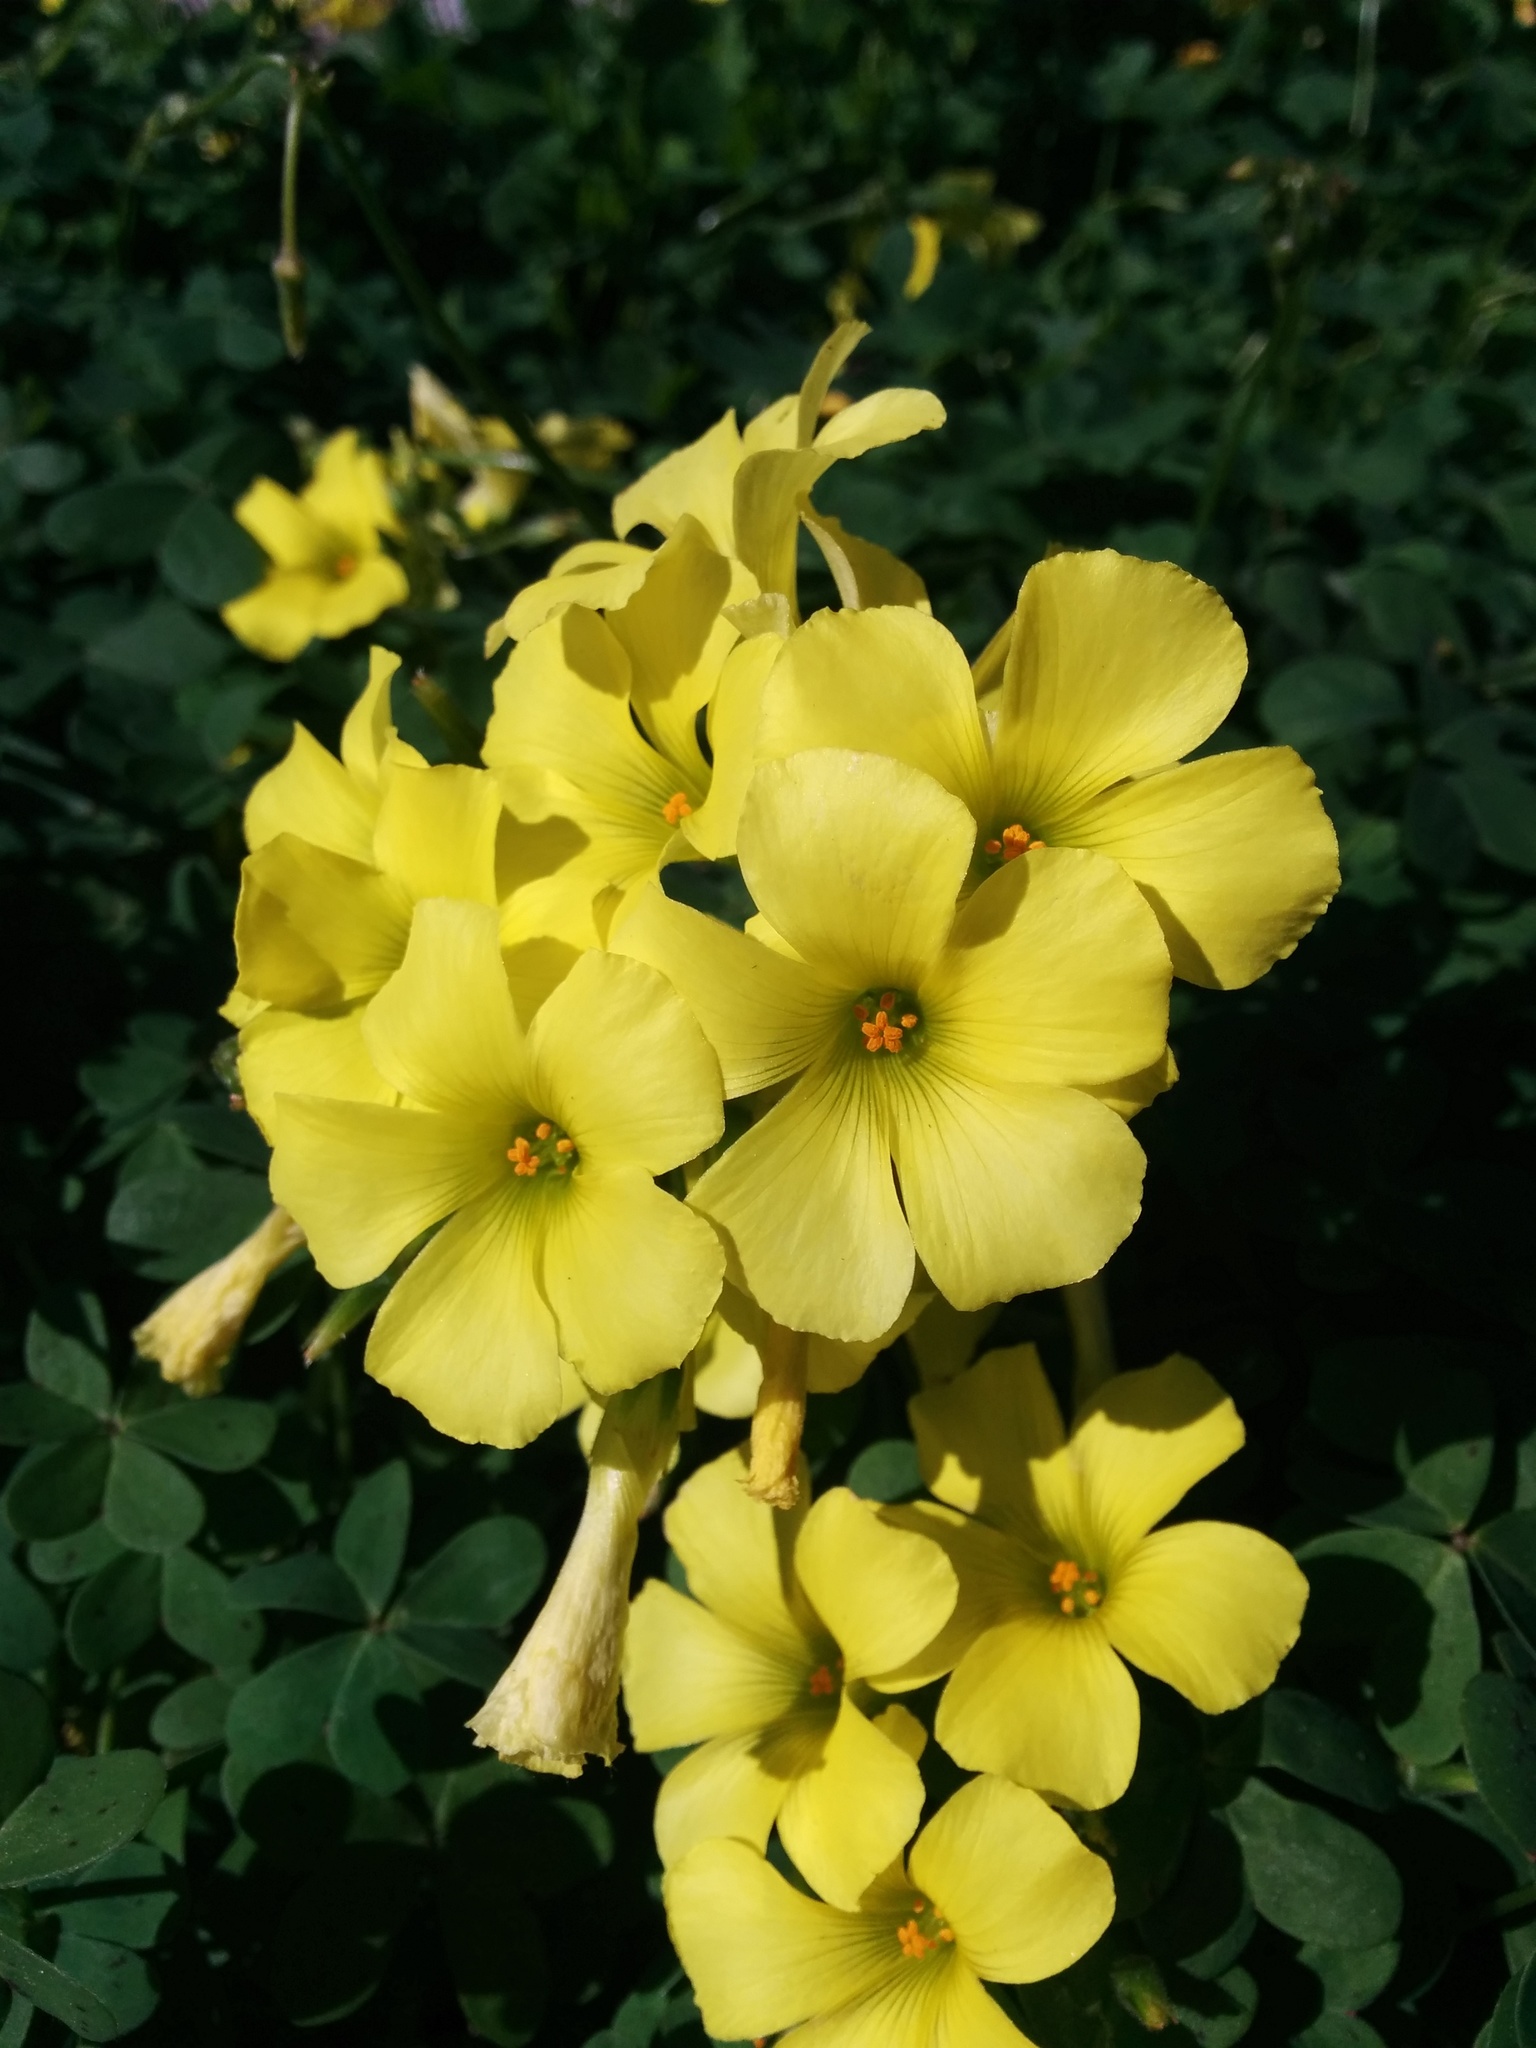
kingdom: Plantae
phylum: Tracheophyta
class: Magnoliopsida
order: Oxalidales
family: Oxalidaceae
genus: Oxalis
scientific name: Oxalis pes-caprae
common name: Bermuda-buttercup
